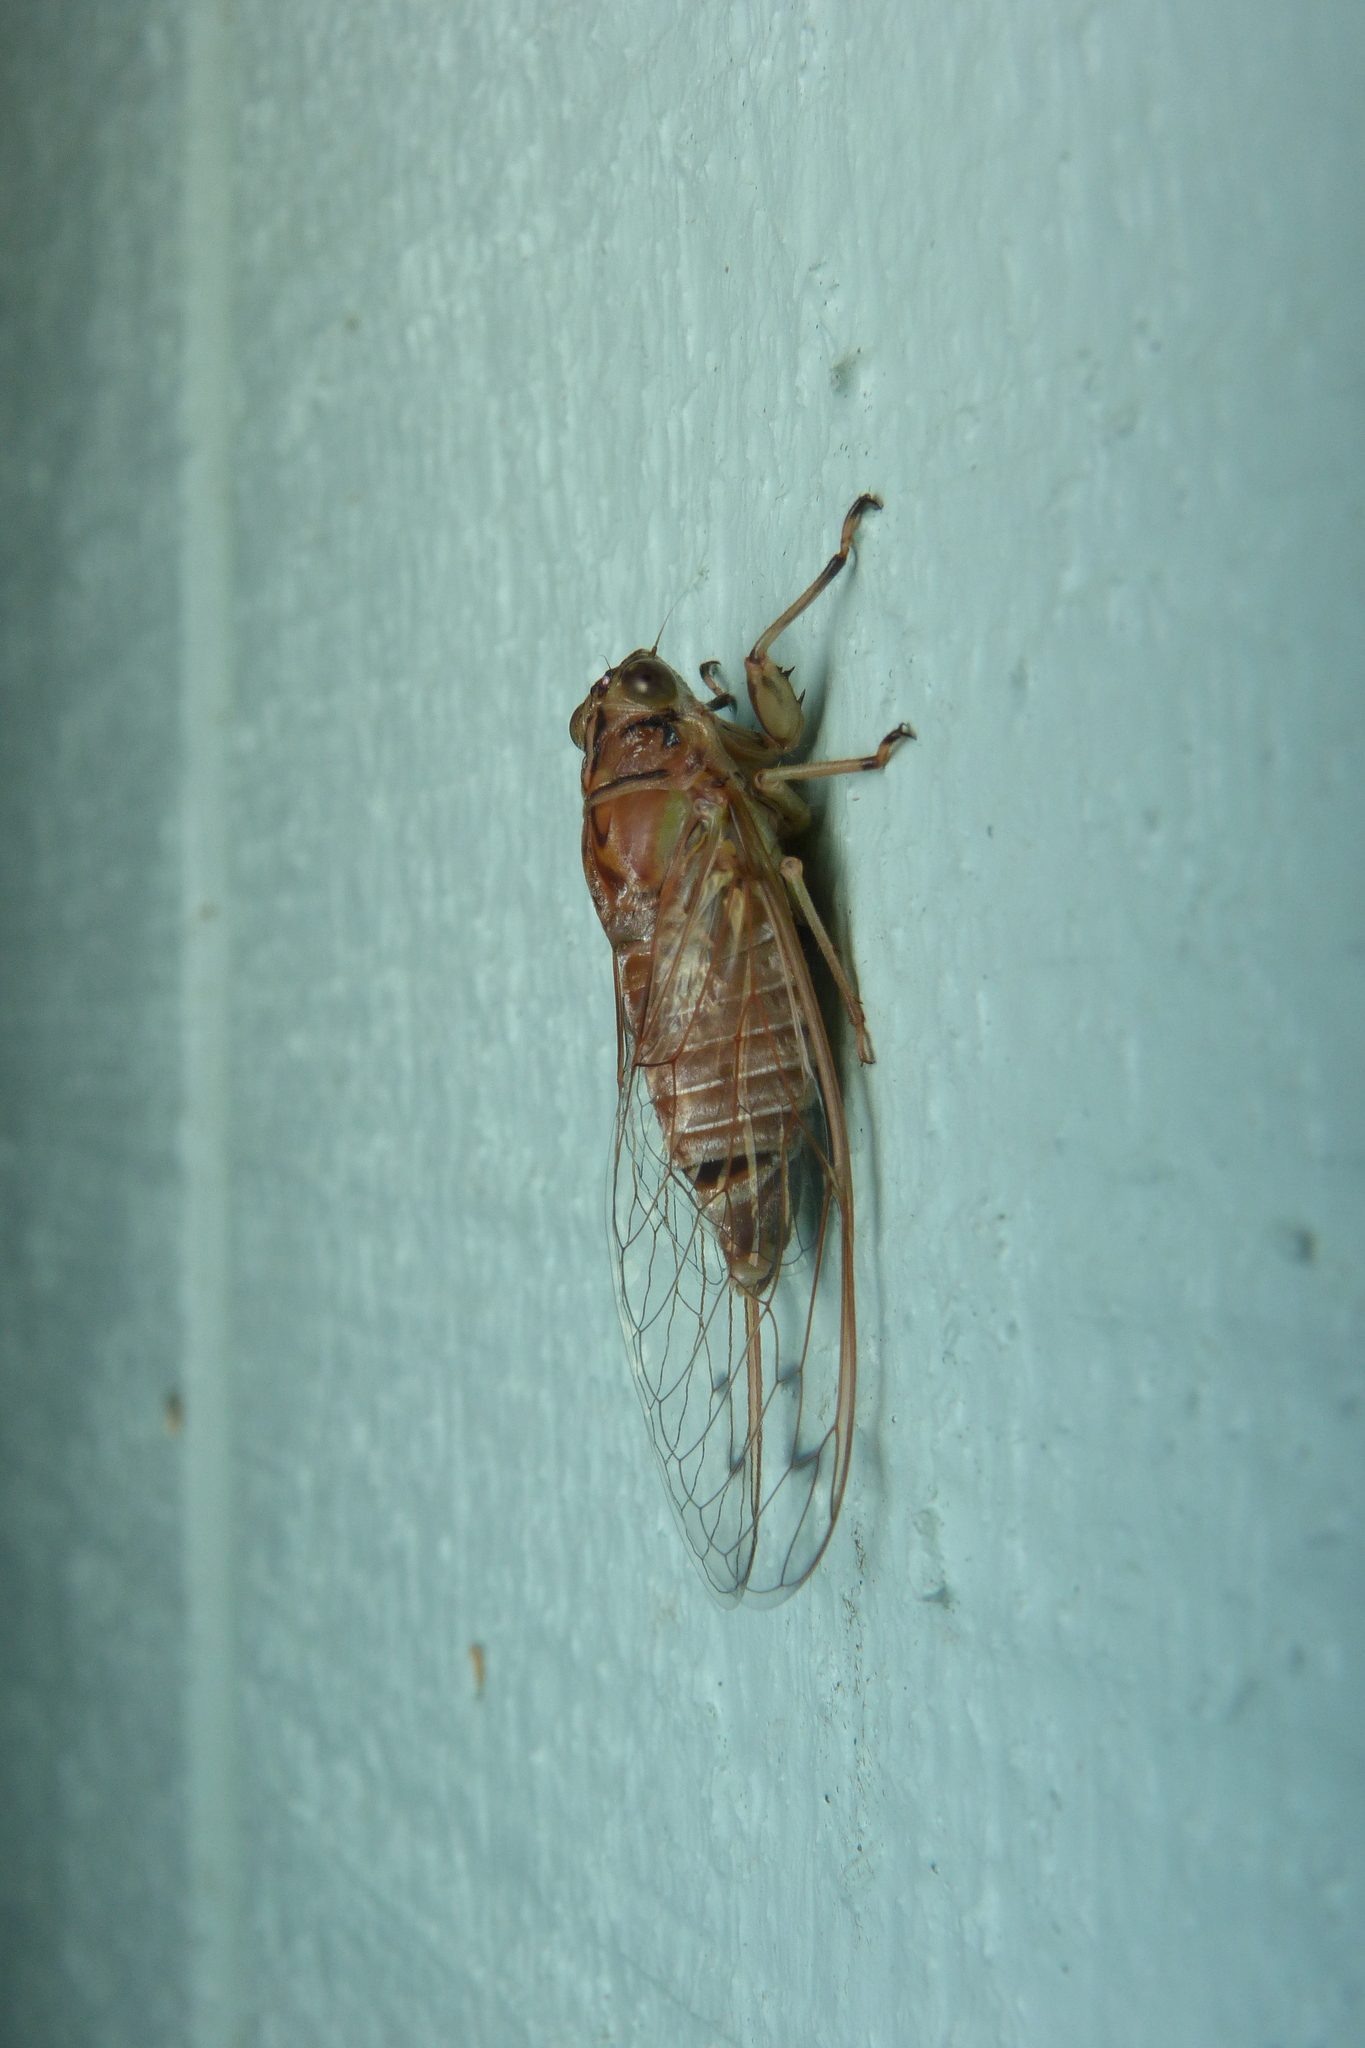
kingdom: Animalia
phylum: Arthropoda
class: Insecta
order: Hemiptera
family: Cicadidae
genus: Tamasa
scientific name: Tamasa burgessi
